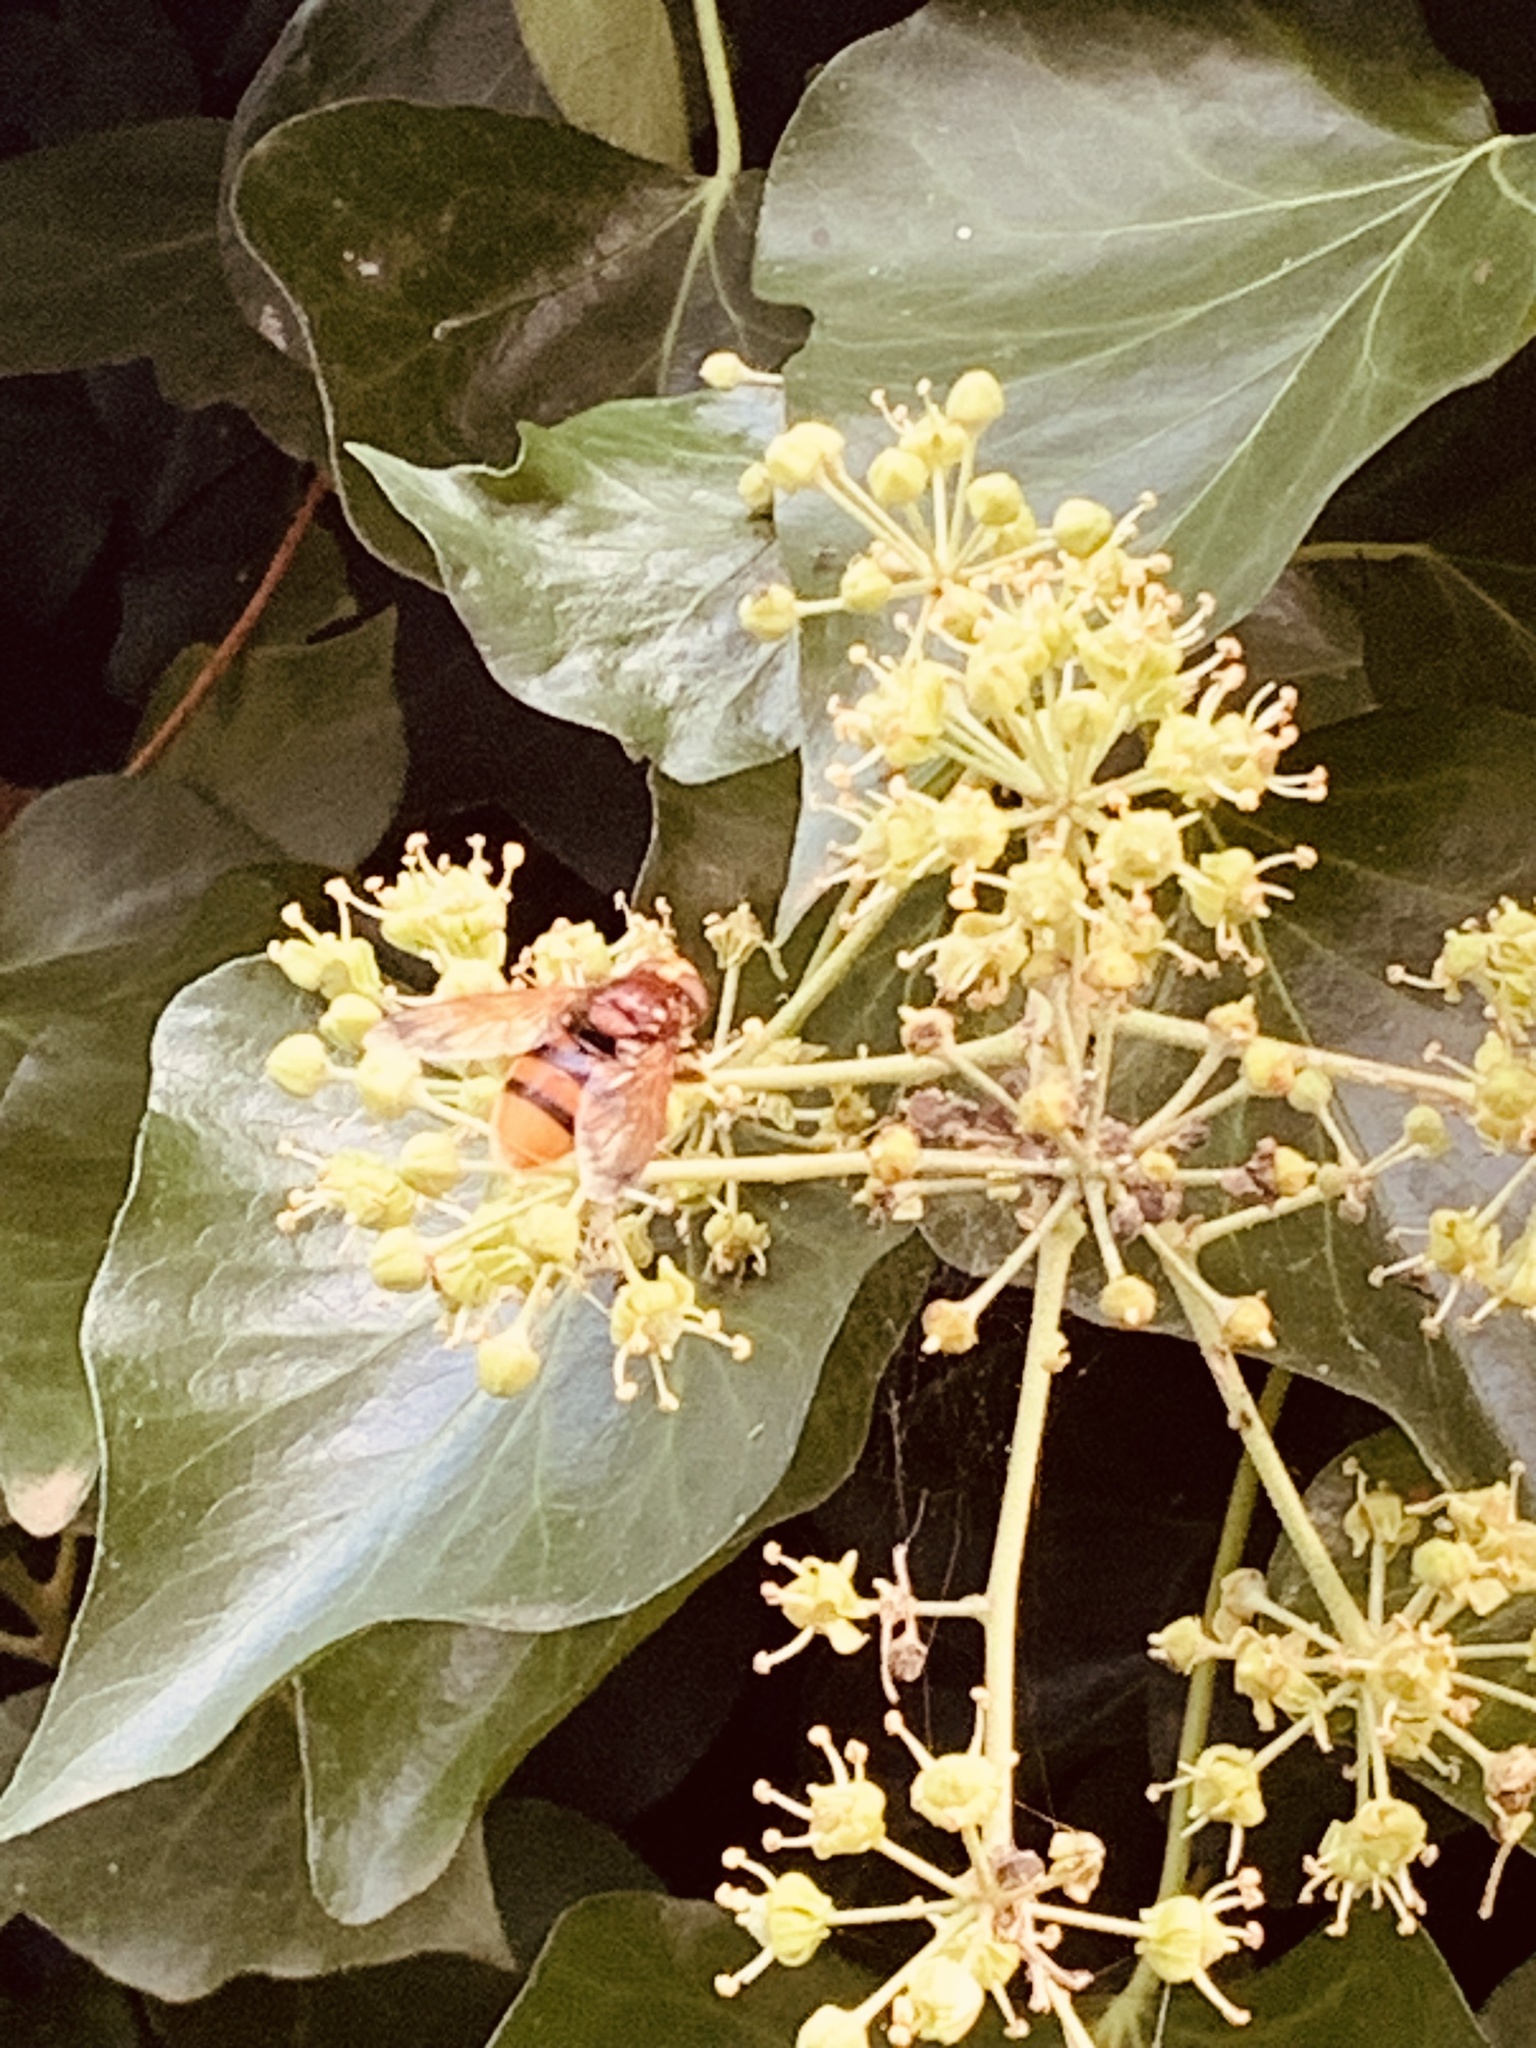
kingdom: Animalia
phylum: Arthropoda
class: Insecta
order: Diptera
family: Syrphidae
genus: Volucella
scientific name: Volucella zonaria
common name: Hornet hoverfly
